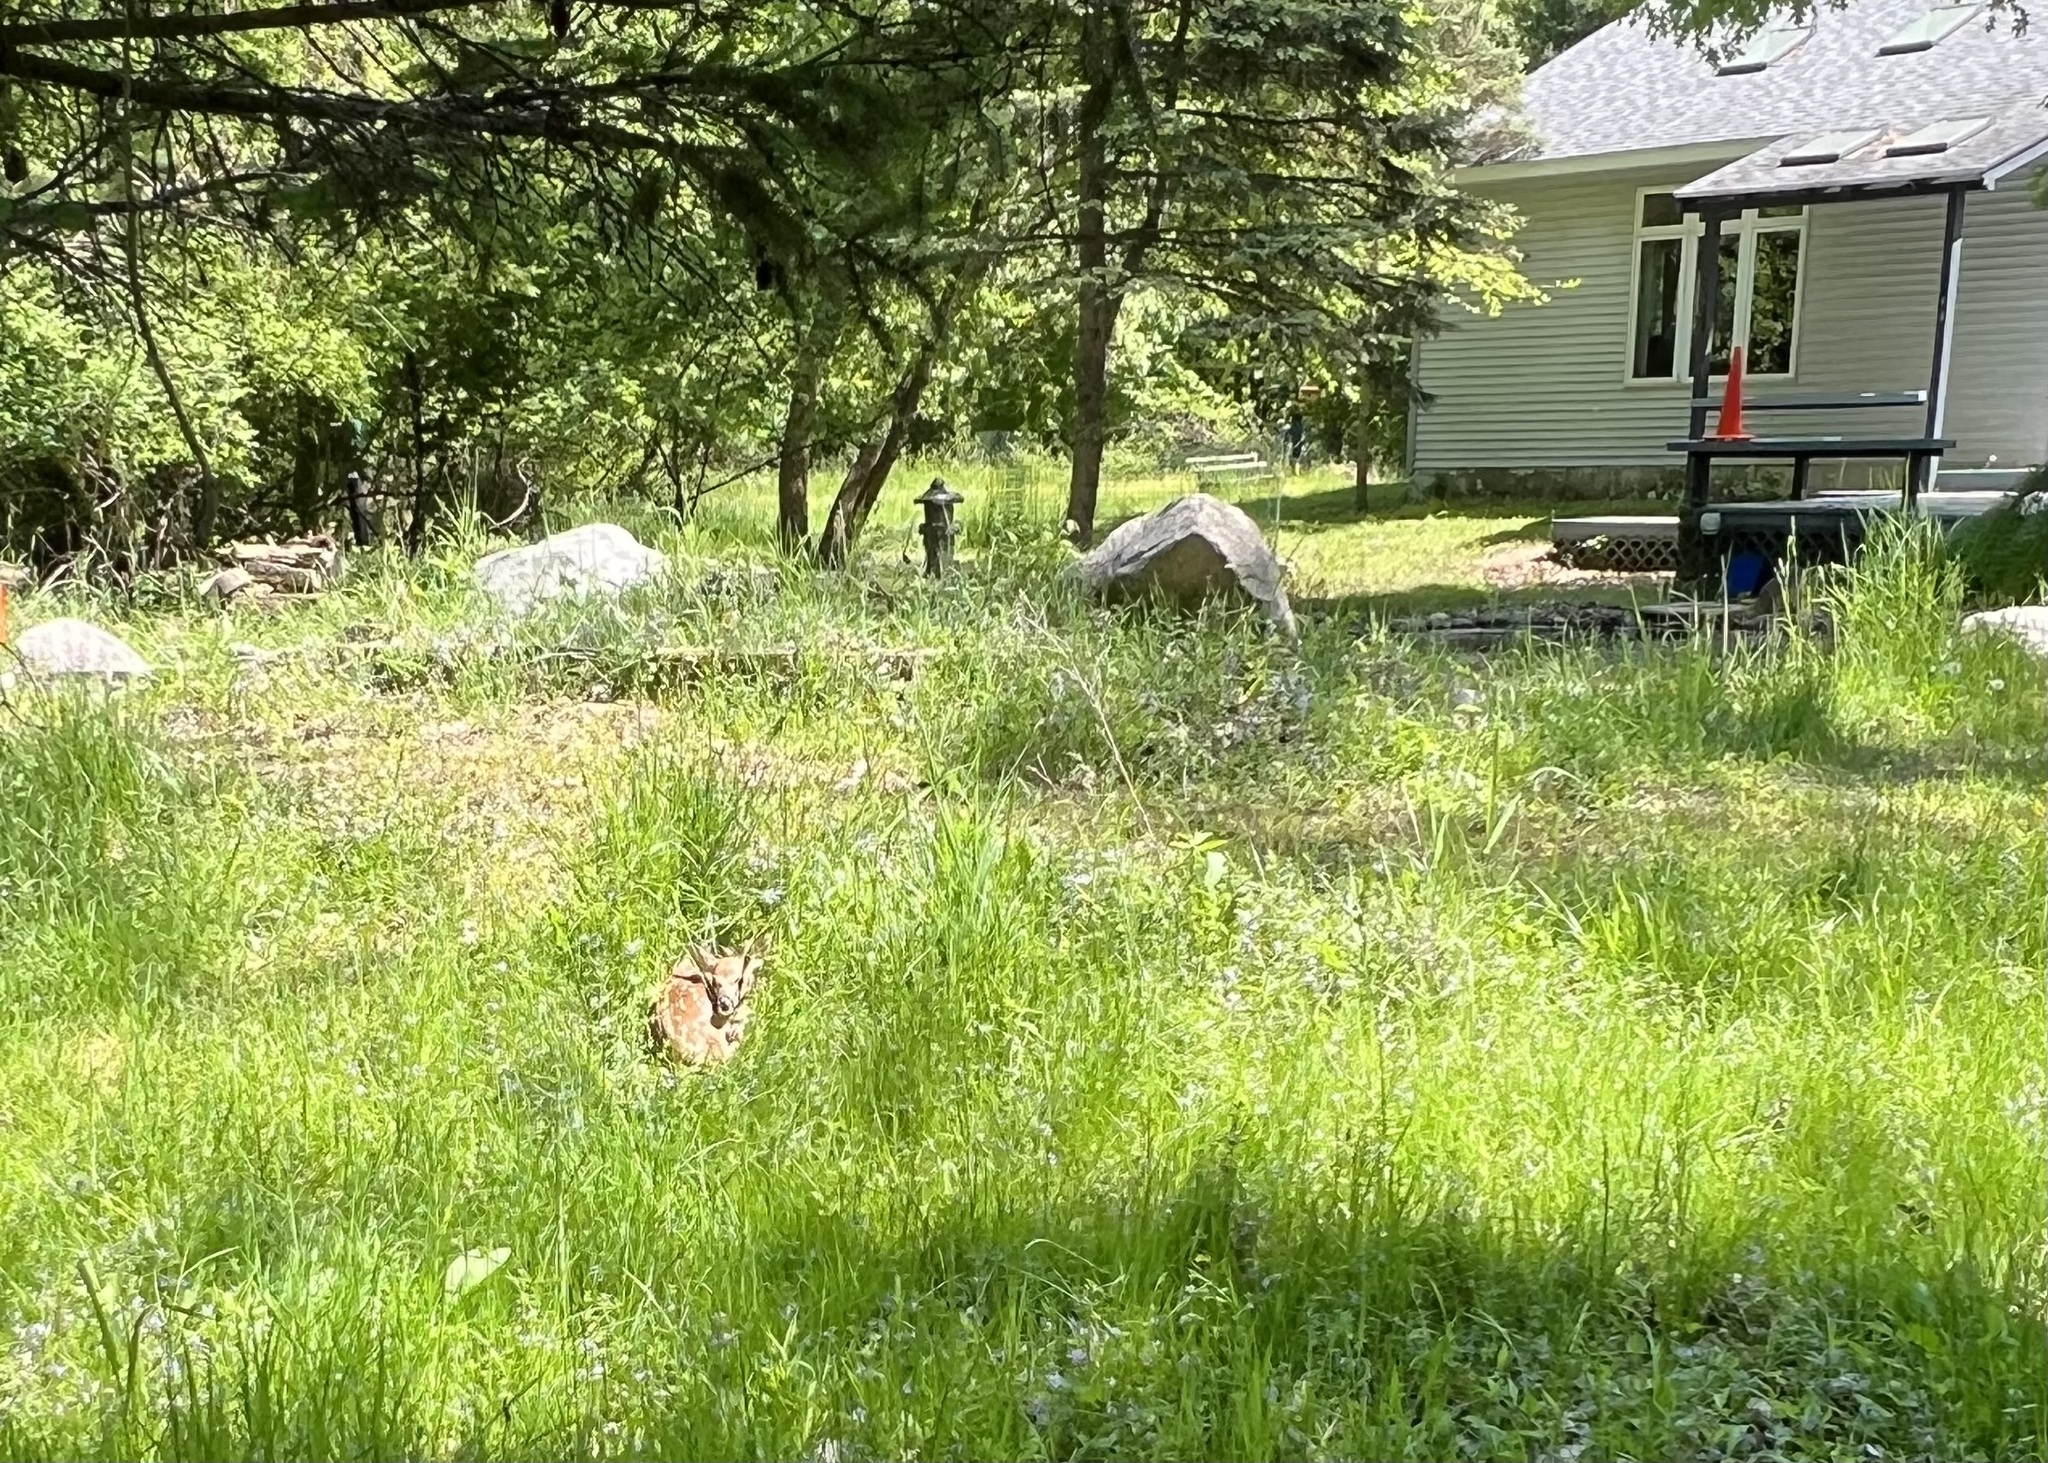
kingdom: Animalia
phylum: Chordata
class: Mammalia
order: Artiodactyla
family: Cervidae
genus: Odocoileus
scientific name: Odocoileus virginianus
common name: White-tailed deer
